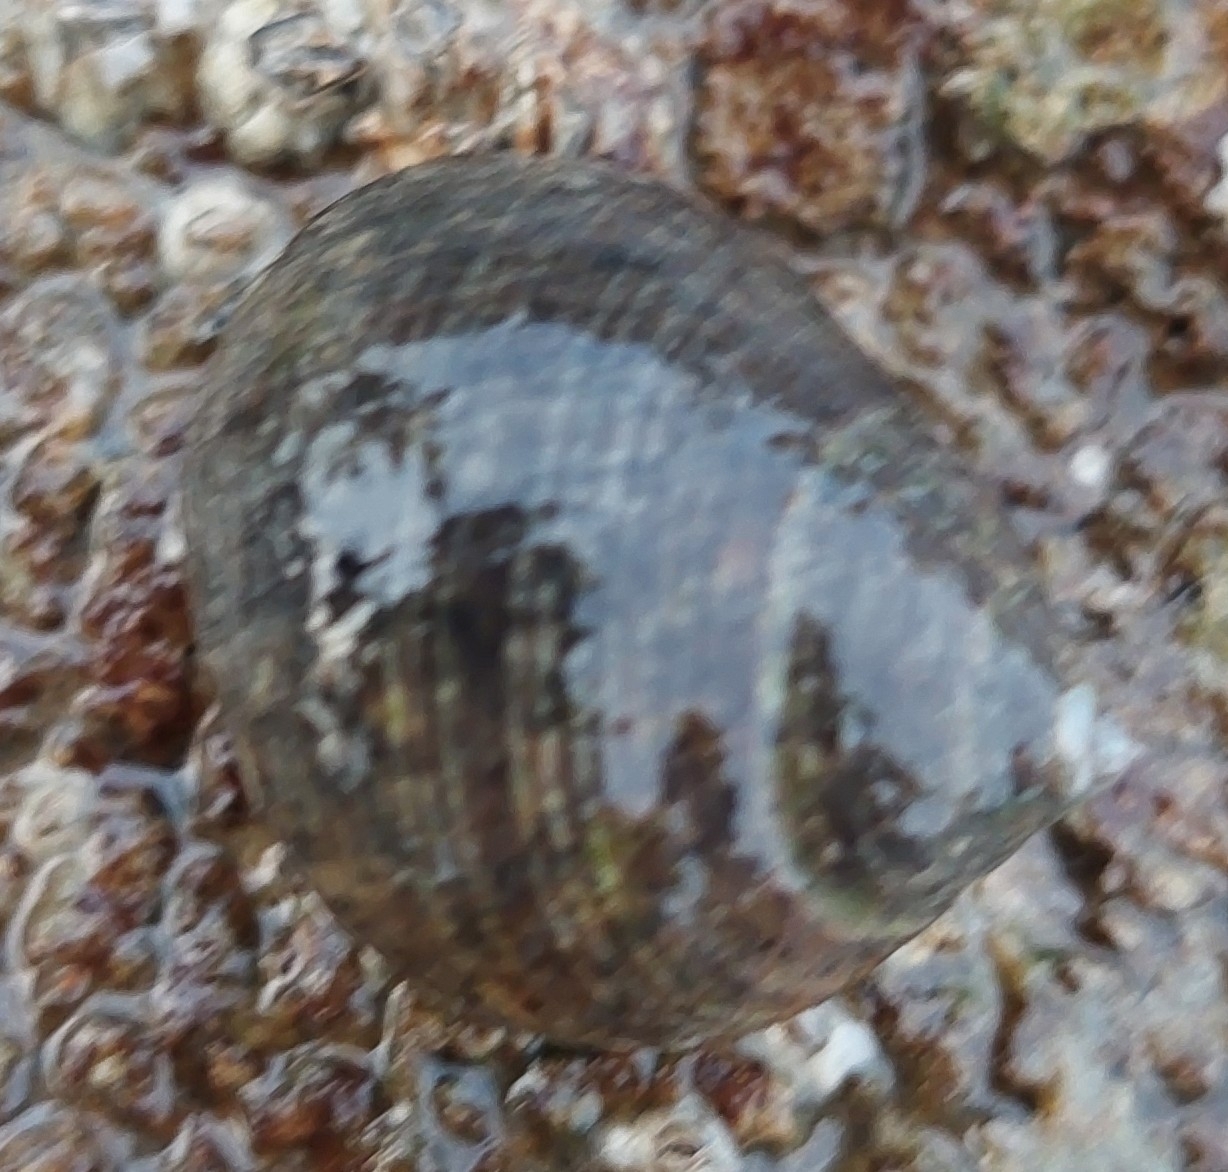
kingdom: Animalia
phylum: Mollusca
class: Gastropoda
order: Littorinimorpha
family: Littorinidae
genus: Littorina
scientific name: Littorina littorea
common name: Common periwinkle
